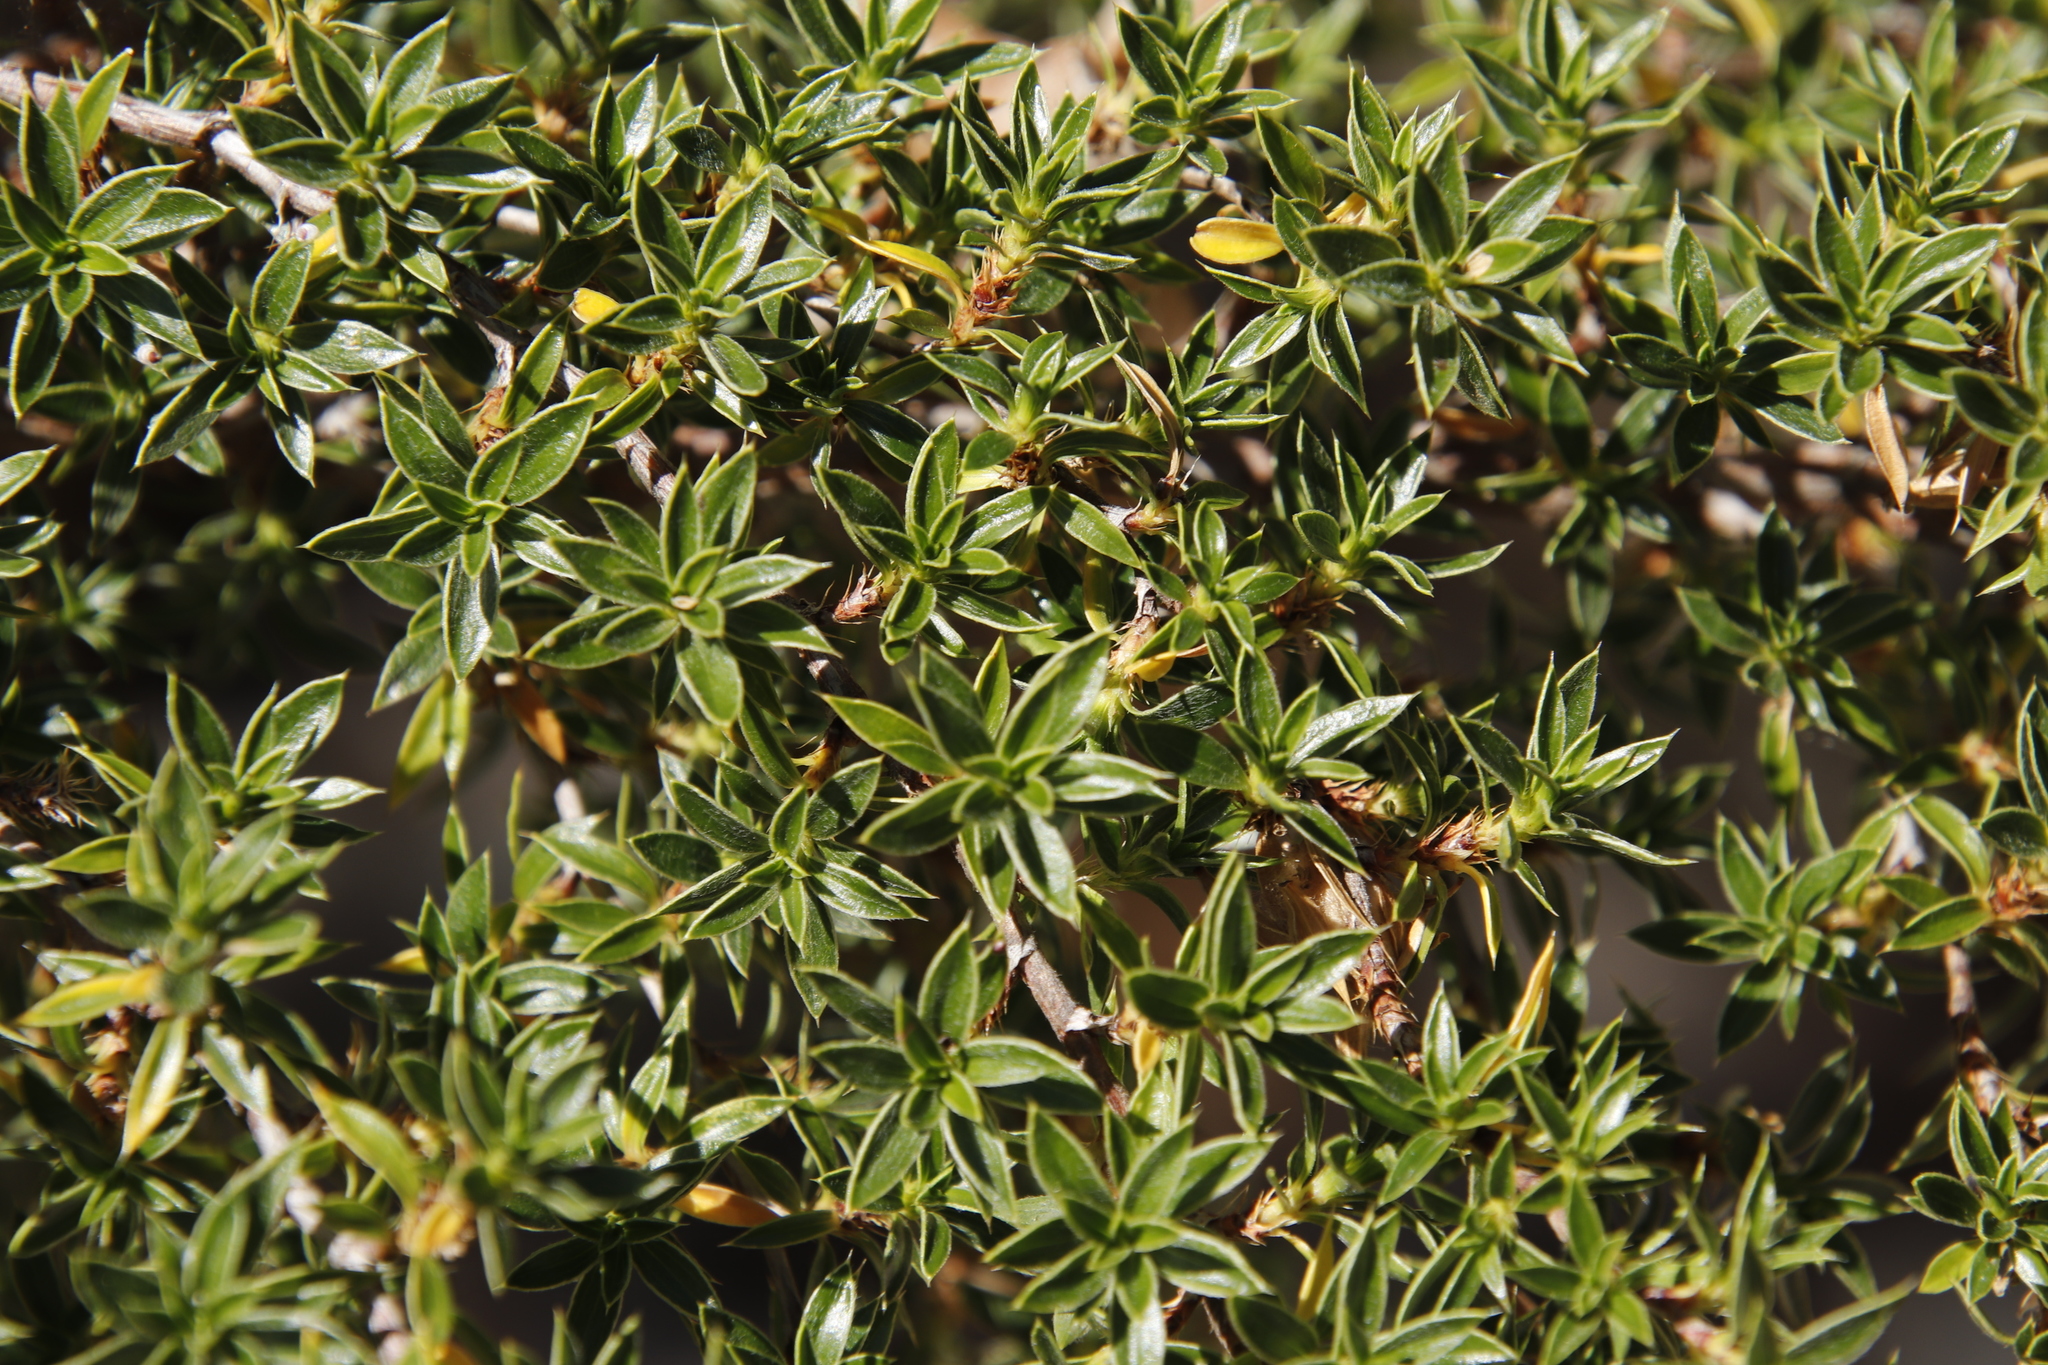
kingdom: Plantae
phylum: Tracheophyta
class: Magnoliopsida
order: Rosales
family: Rosaceae
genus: Cliffortia
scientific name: Cliffortia ruscifolia
